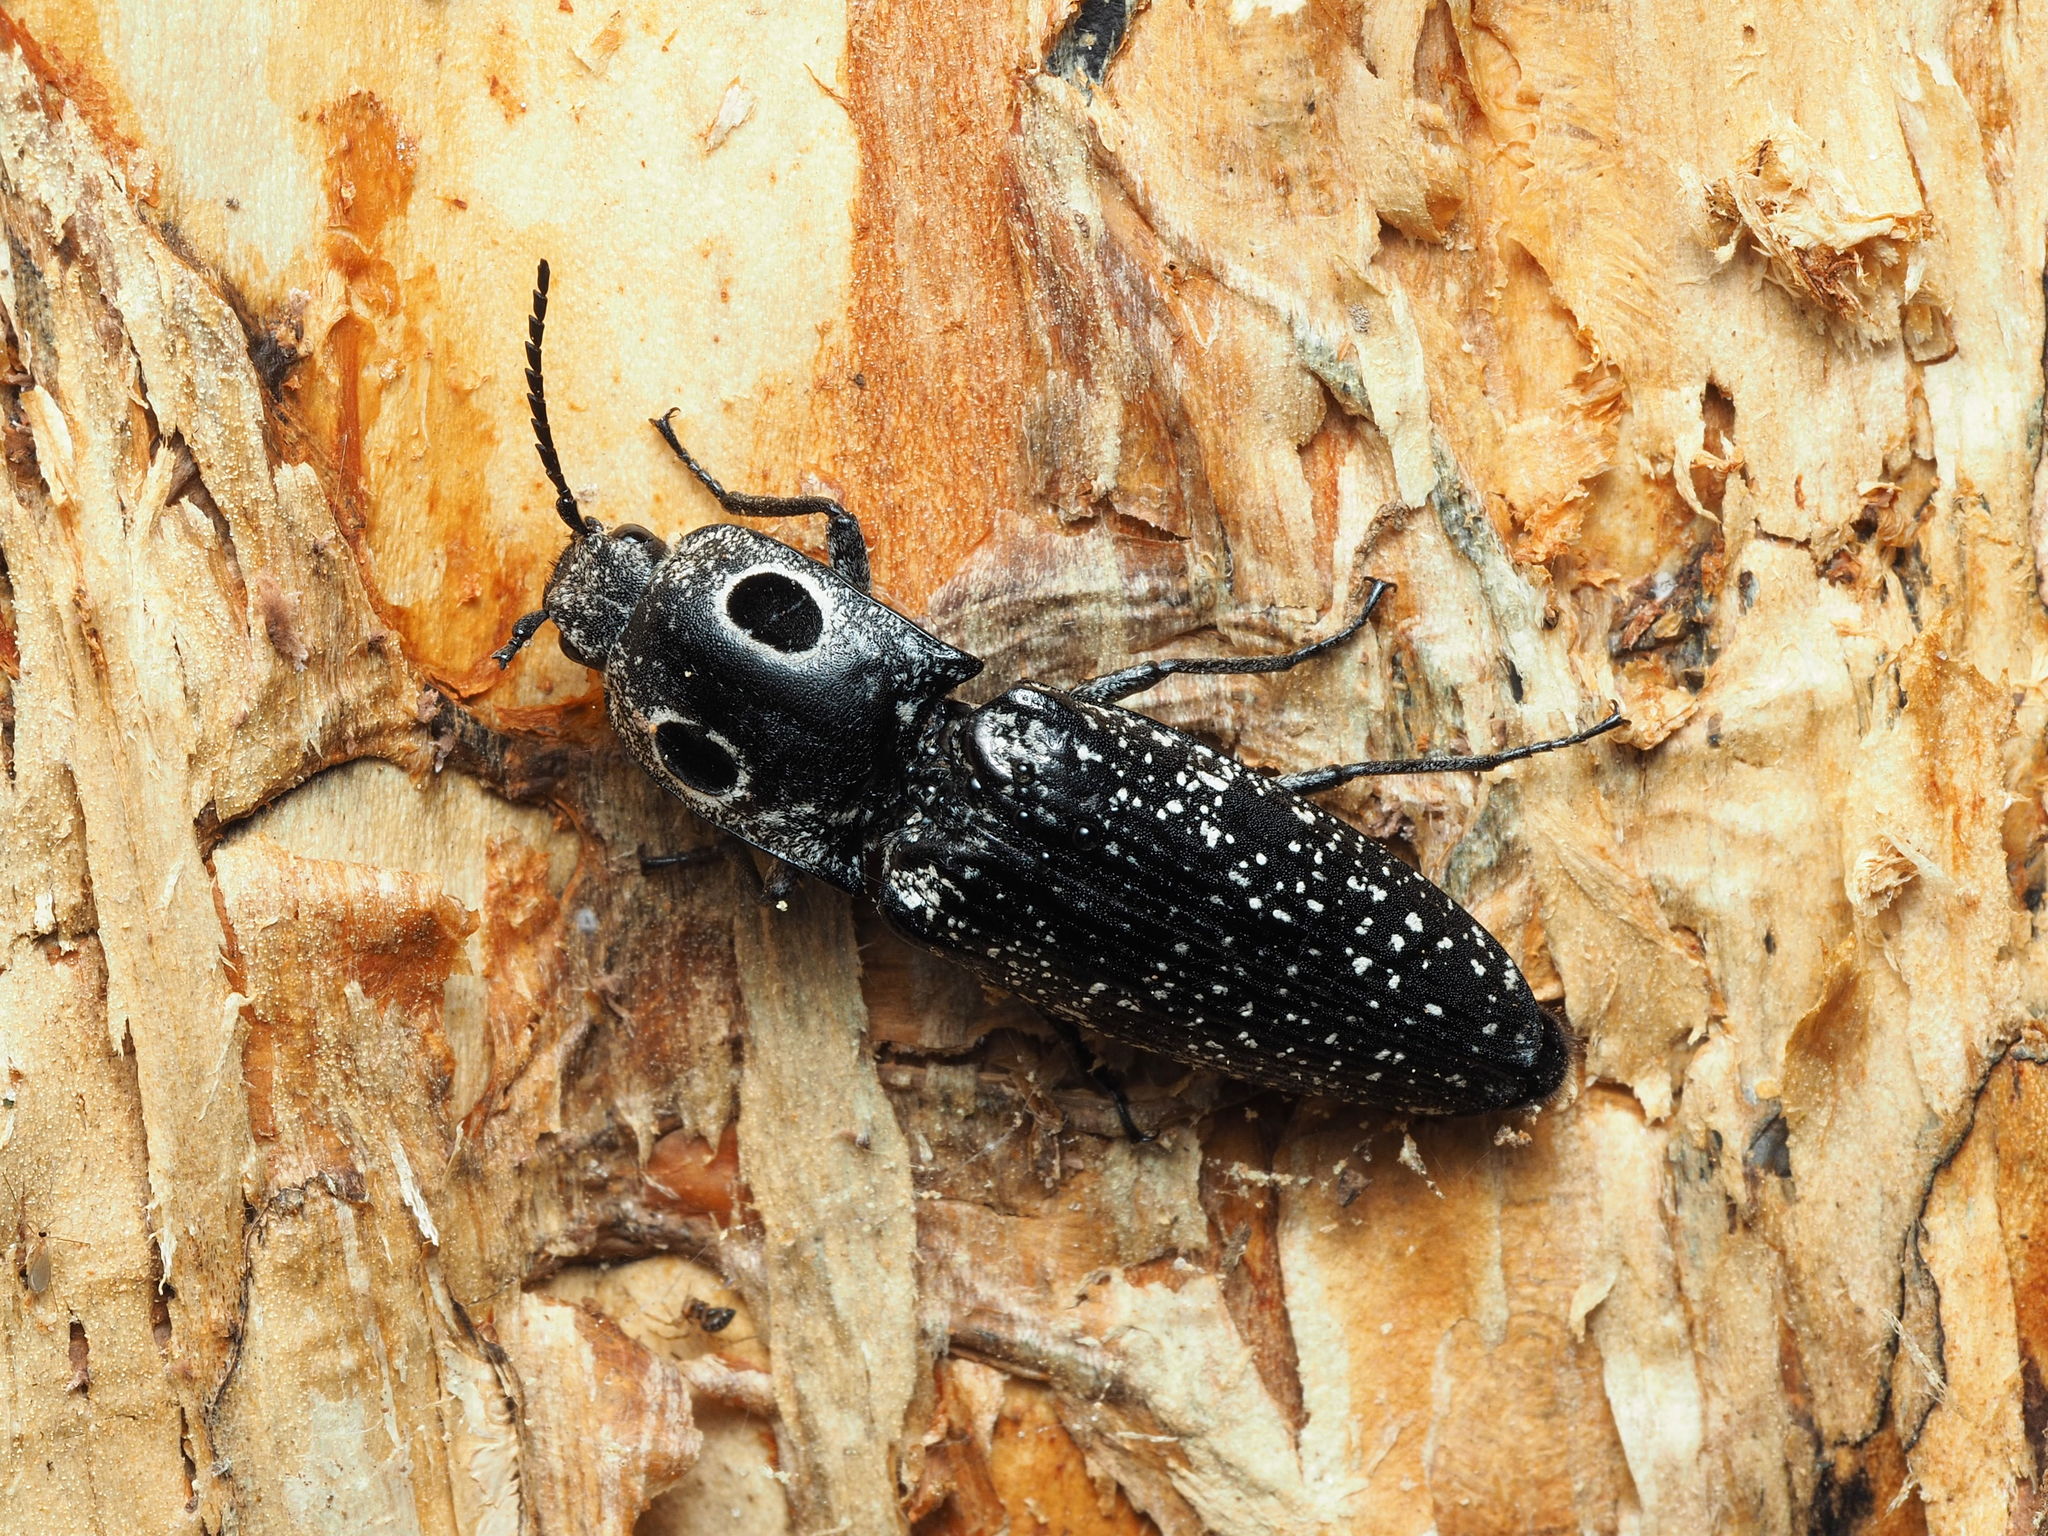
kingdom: Animalia
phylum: Arthropoda
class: Insecta
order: Coleoptera
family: Elateridae
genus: Alaus
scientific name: Alaus oculatus
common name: Eastern eyed click beetle
